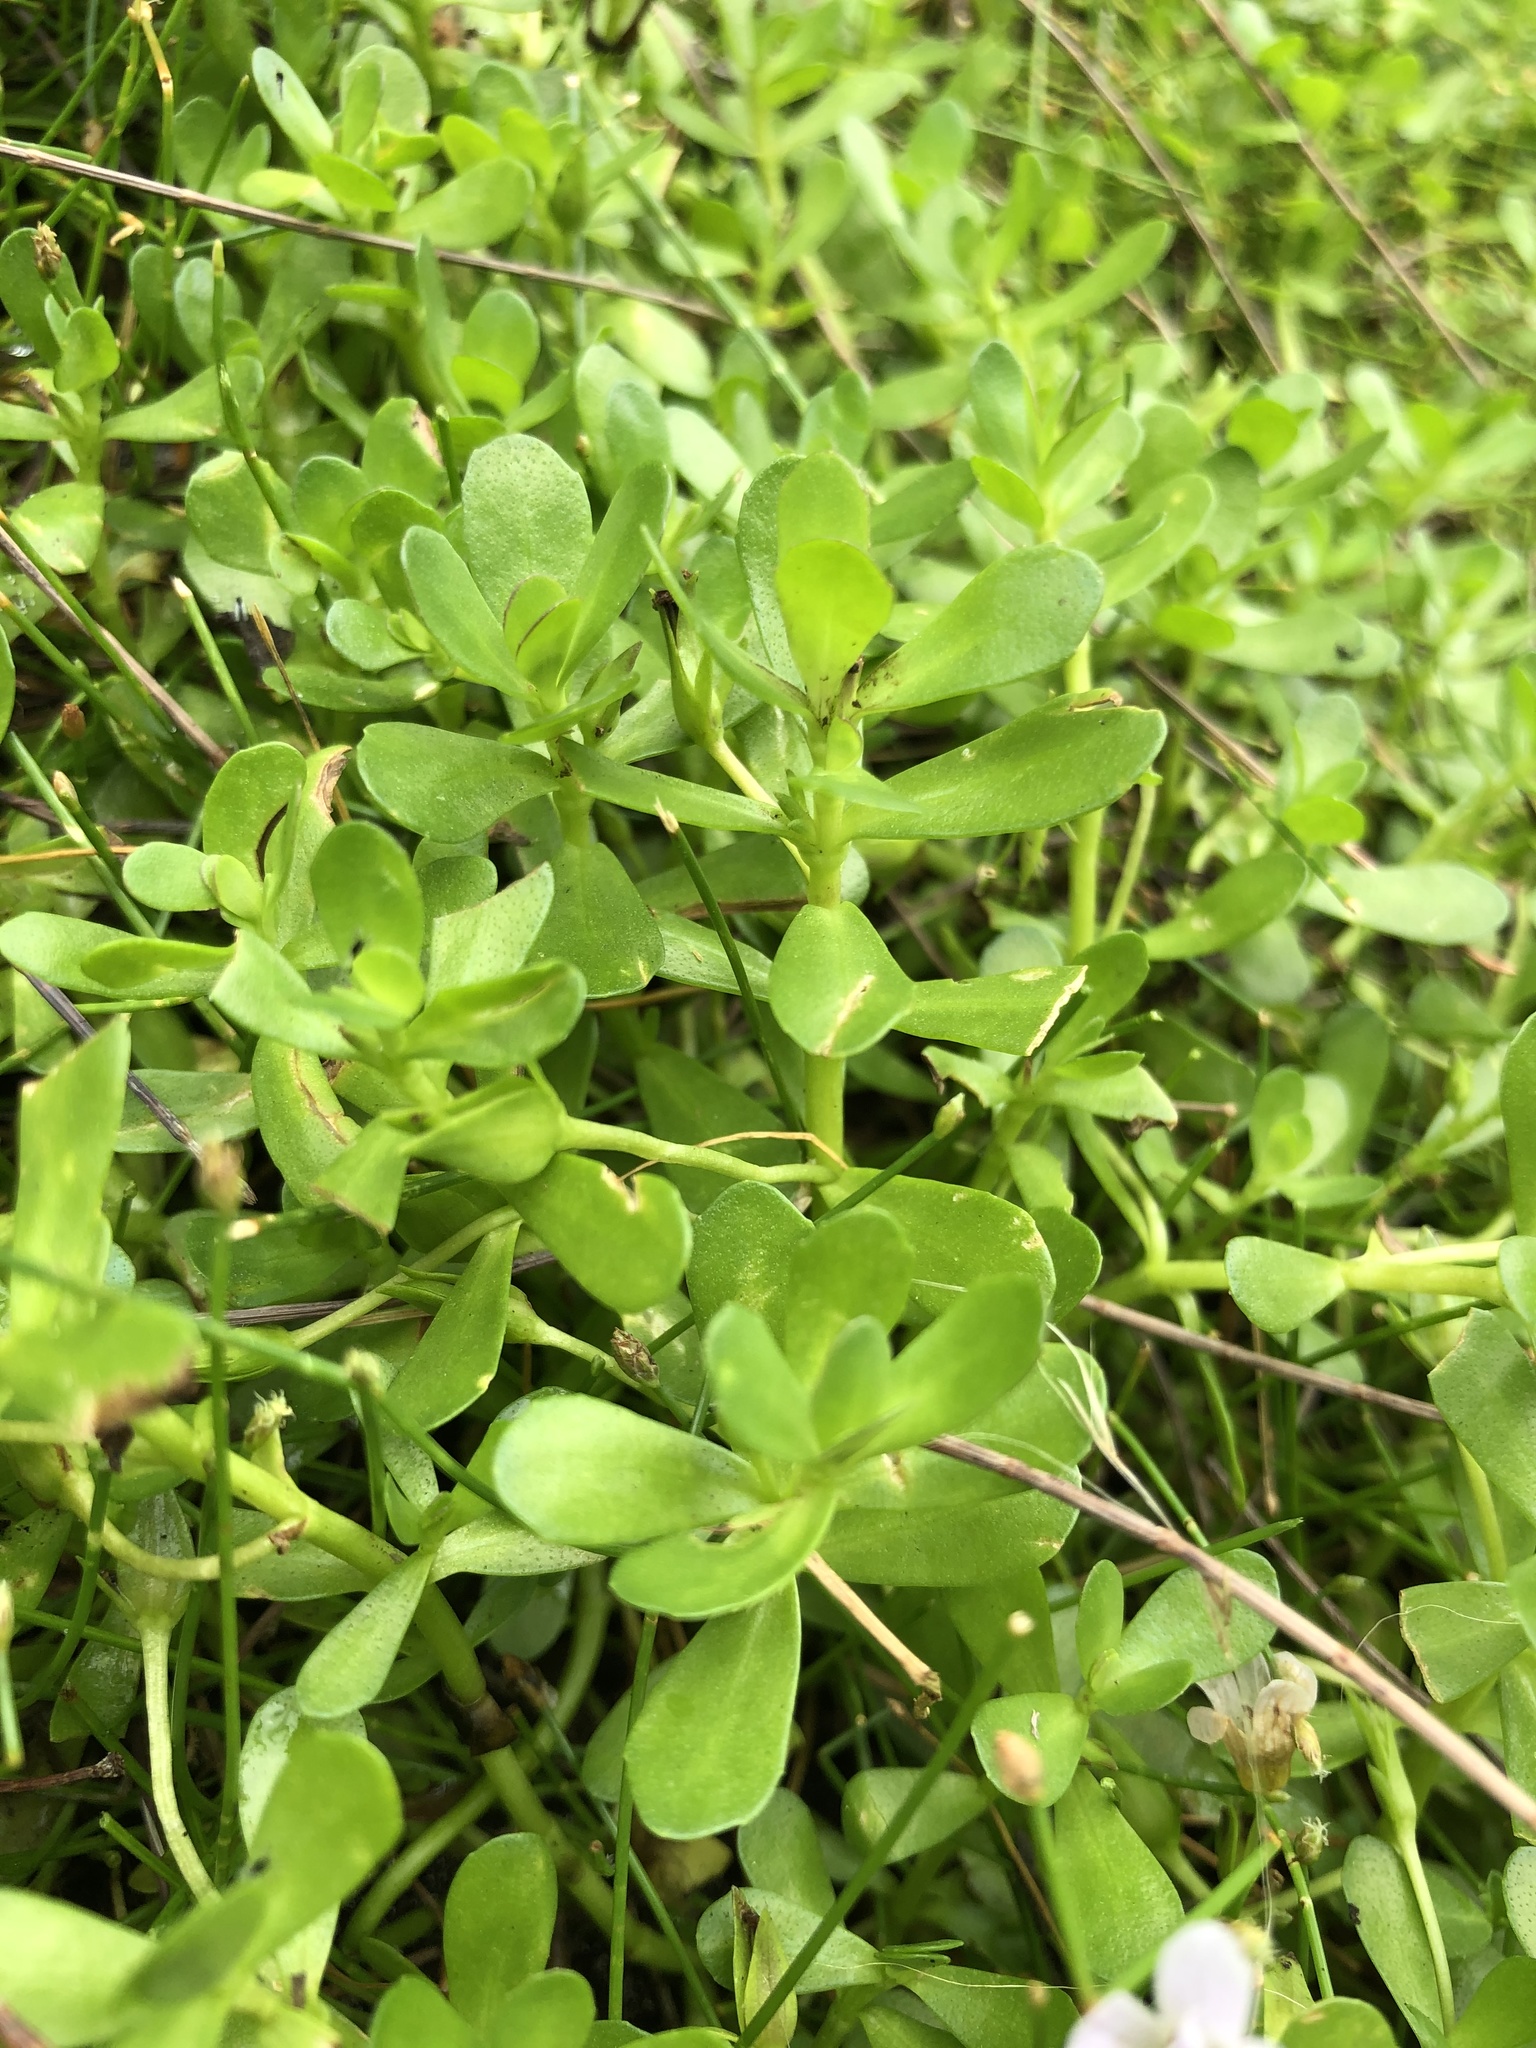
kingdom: Plantae
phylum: Tracheophyta
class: Magnoliopsida
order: Lamiales
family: Plantaginaceae
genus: Bacopa
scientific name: Bacopa monnieri
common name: Indian-pennywort
